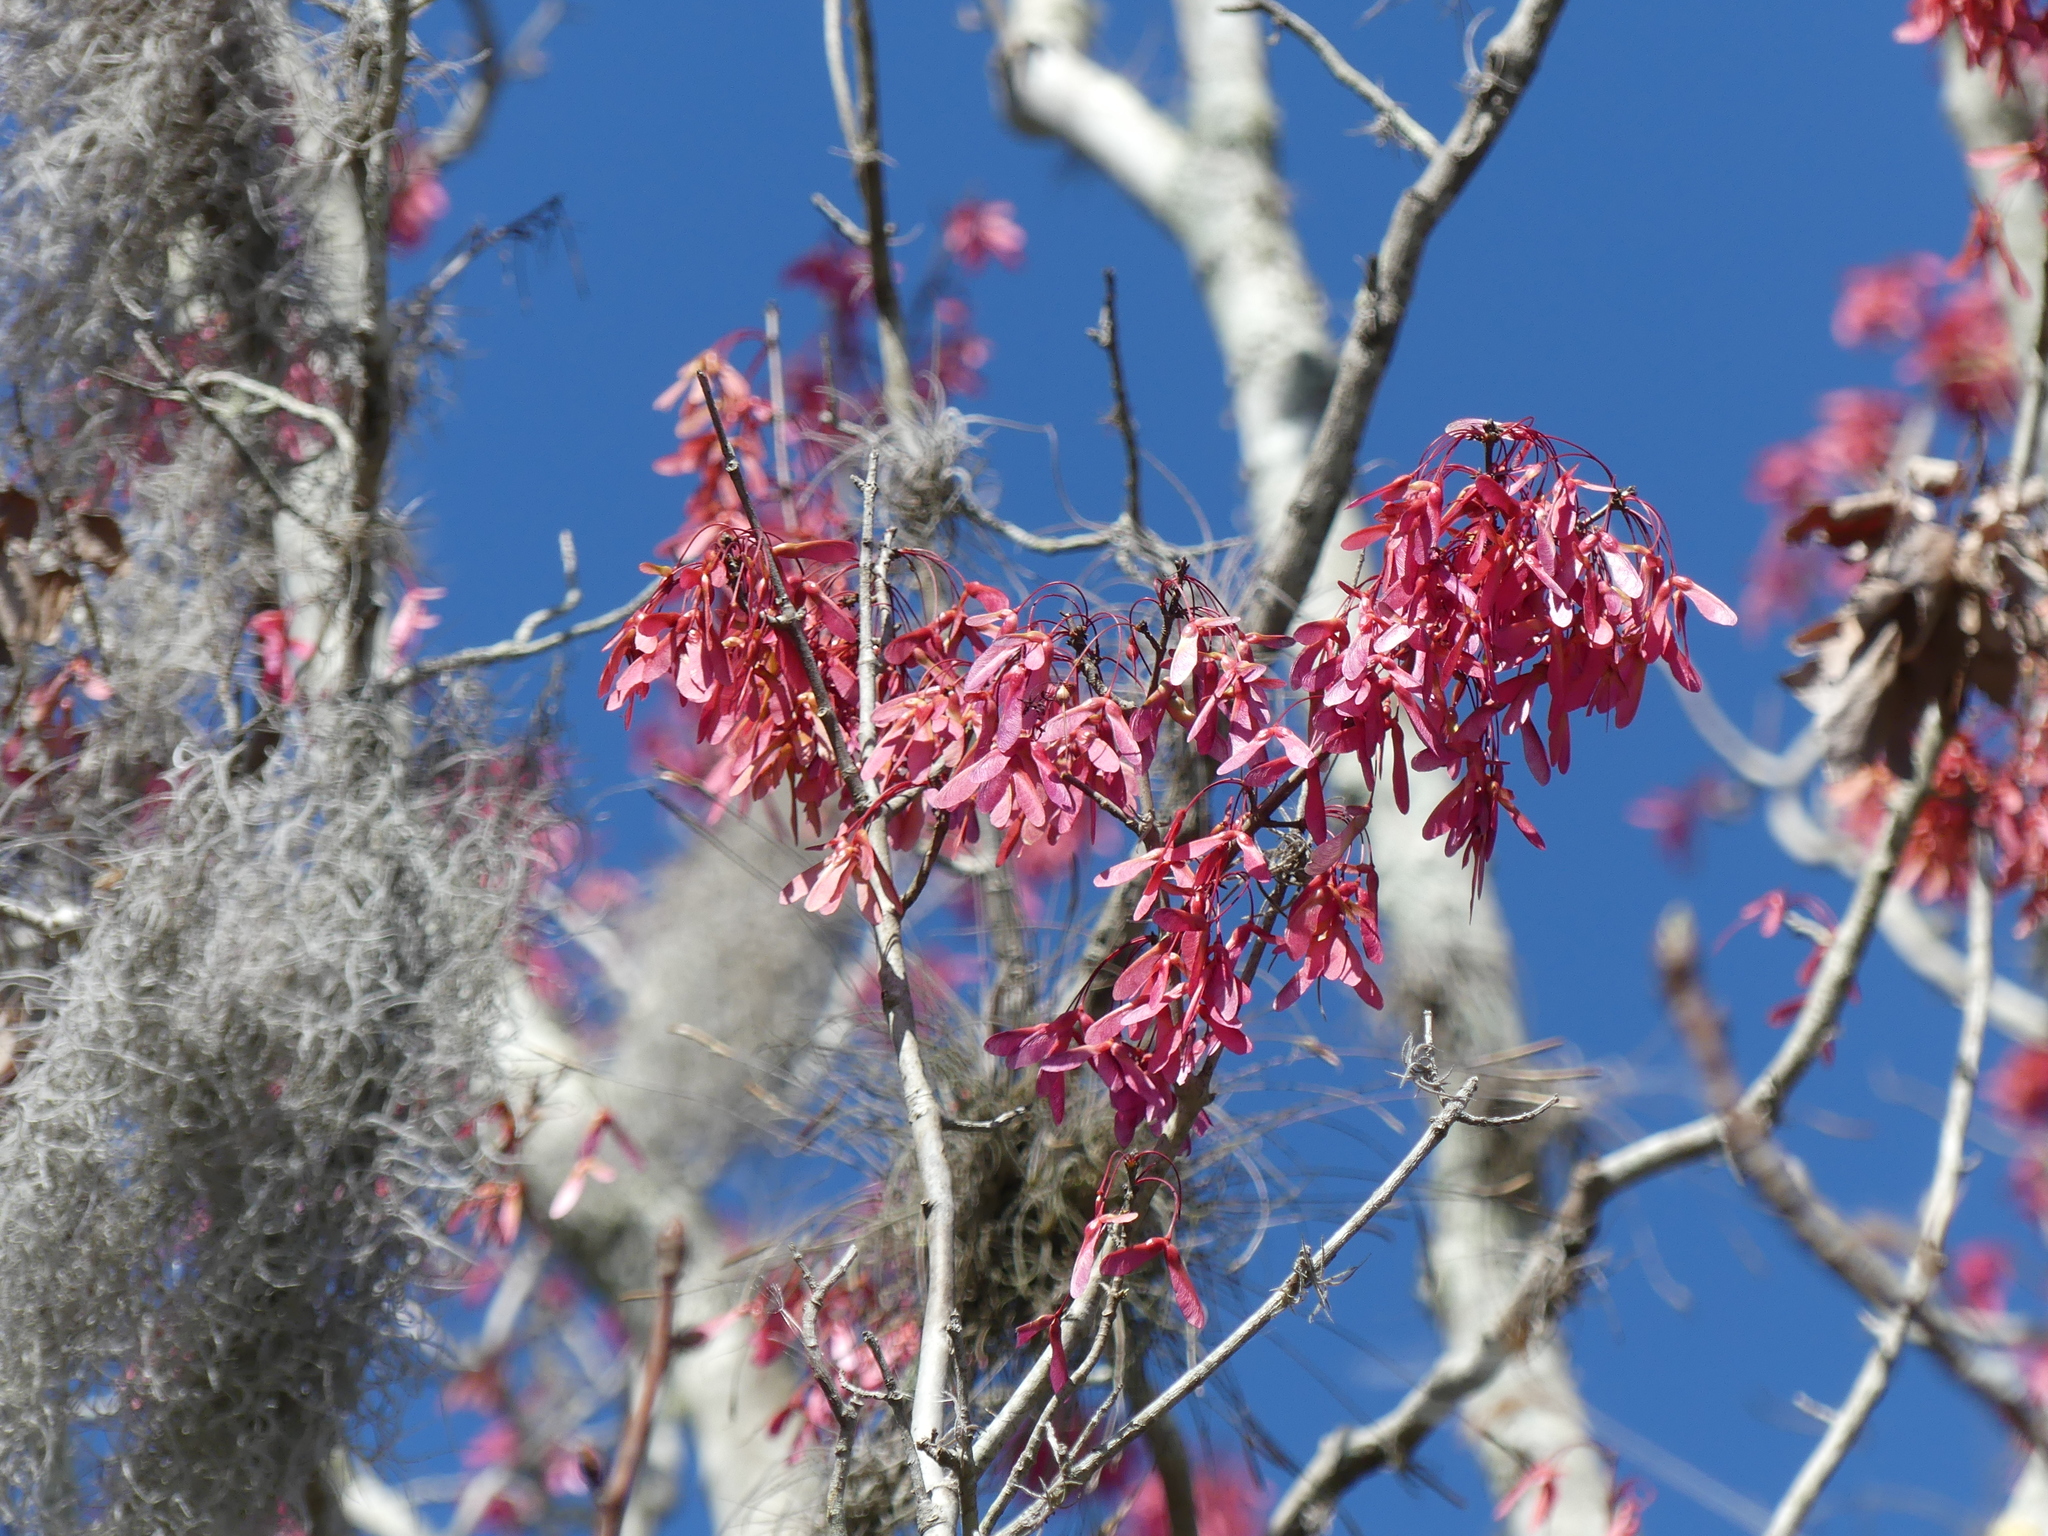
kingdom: Plantae
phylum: Tracheophyta
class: Magnoliopsida
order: Sapindales
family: Sapindaceae
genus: Acer
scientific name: Acer rubrum
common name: Red maple
